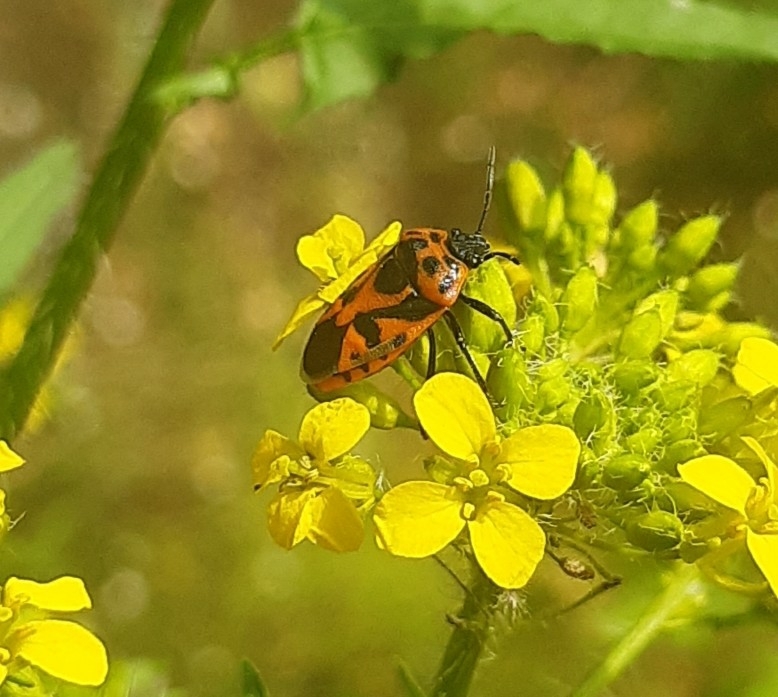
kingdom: Animalia
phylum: Arthropoda
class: Insecta
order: Hemiptera
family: Pentatomidae
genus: Eurydema
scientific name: Eurydema ornata
